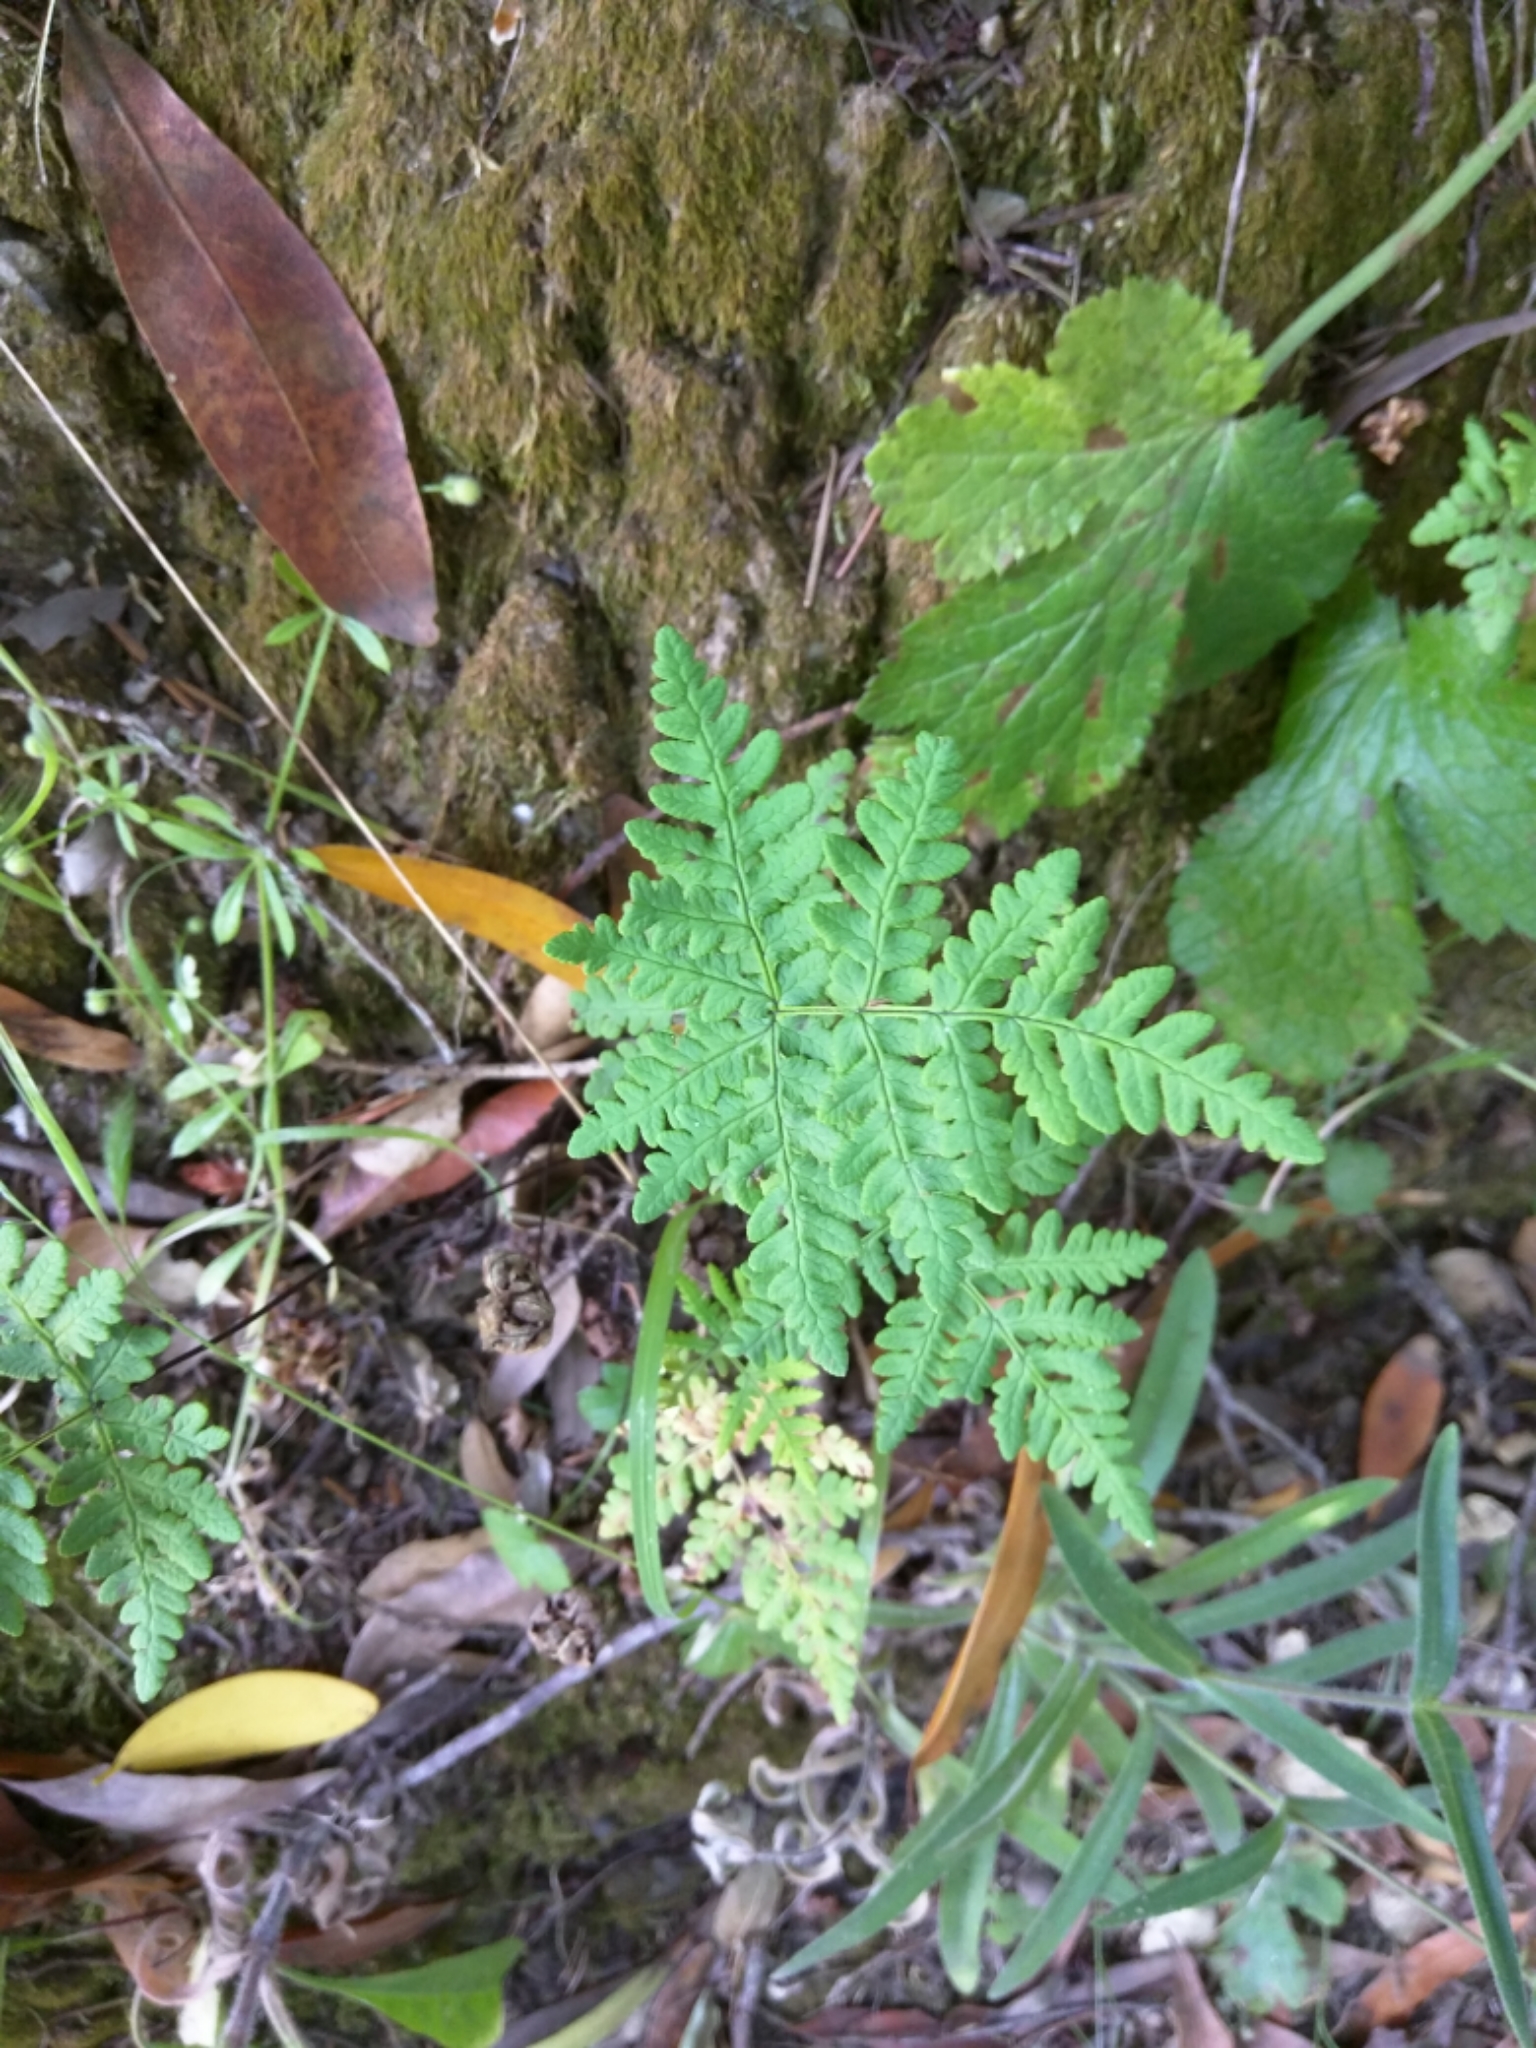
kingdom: Plantae
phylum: Tracheophyta
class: Polypodiopsida
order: Polypodiales
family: Pteridaceae
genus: Pentagramma
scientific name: Pentagramma triangularis
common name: Gold fern
